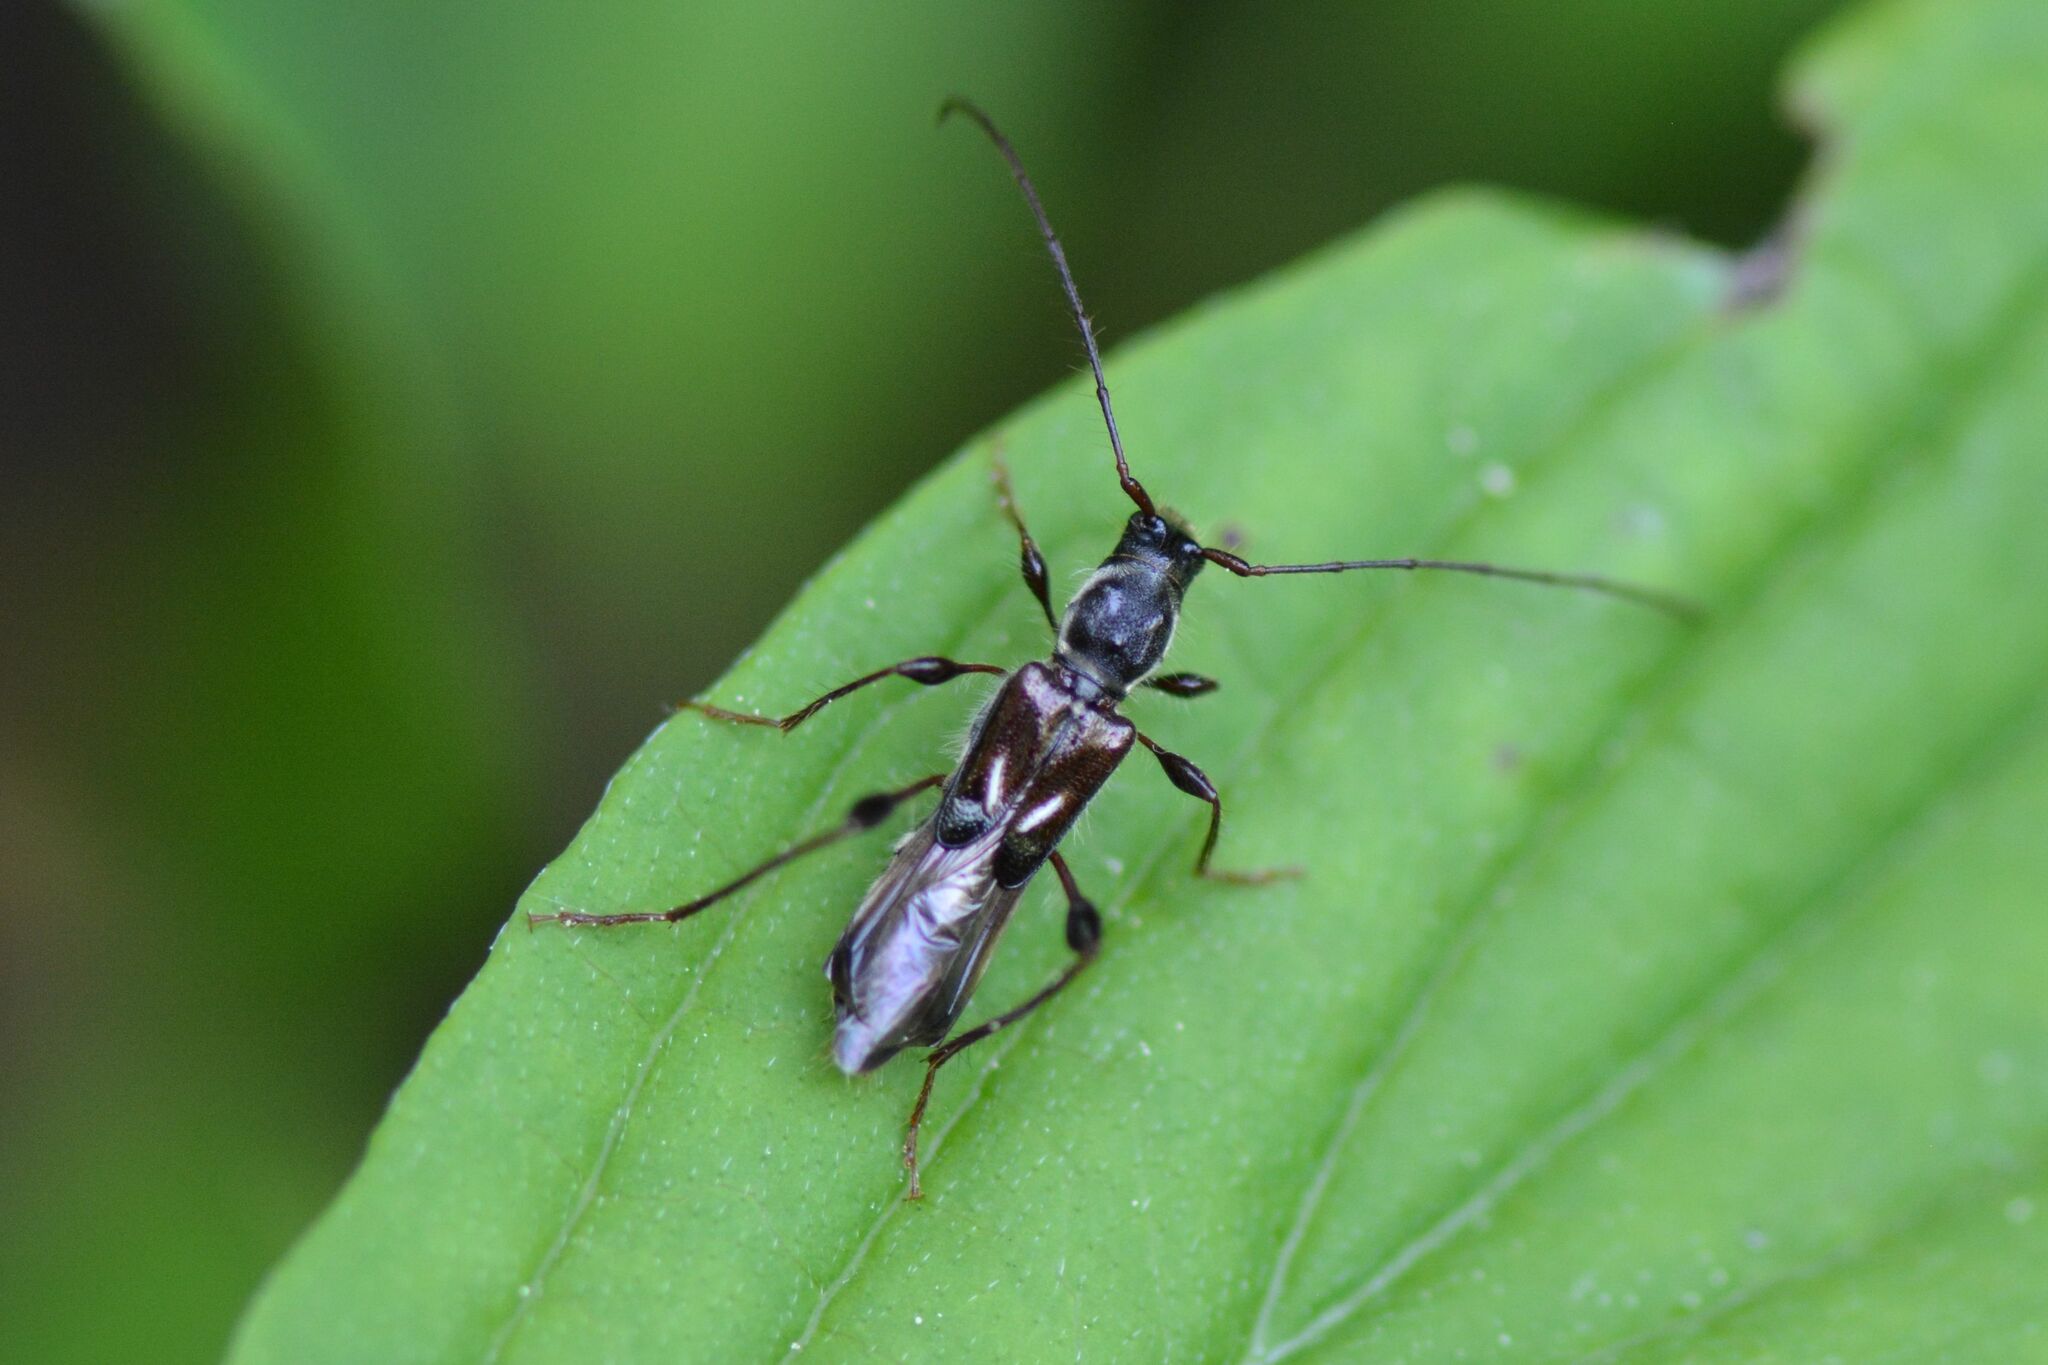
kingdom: Animalia
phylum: Arthropoda
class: Insecta
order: Coleoptera
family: Cerambycidae
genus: Molorchus
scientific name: Molorchus minor
